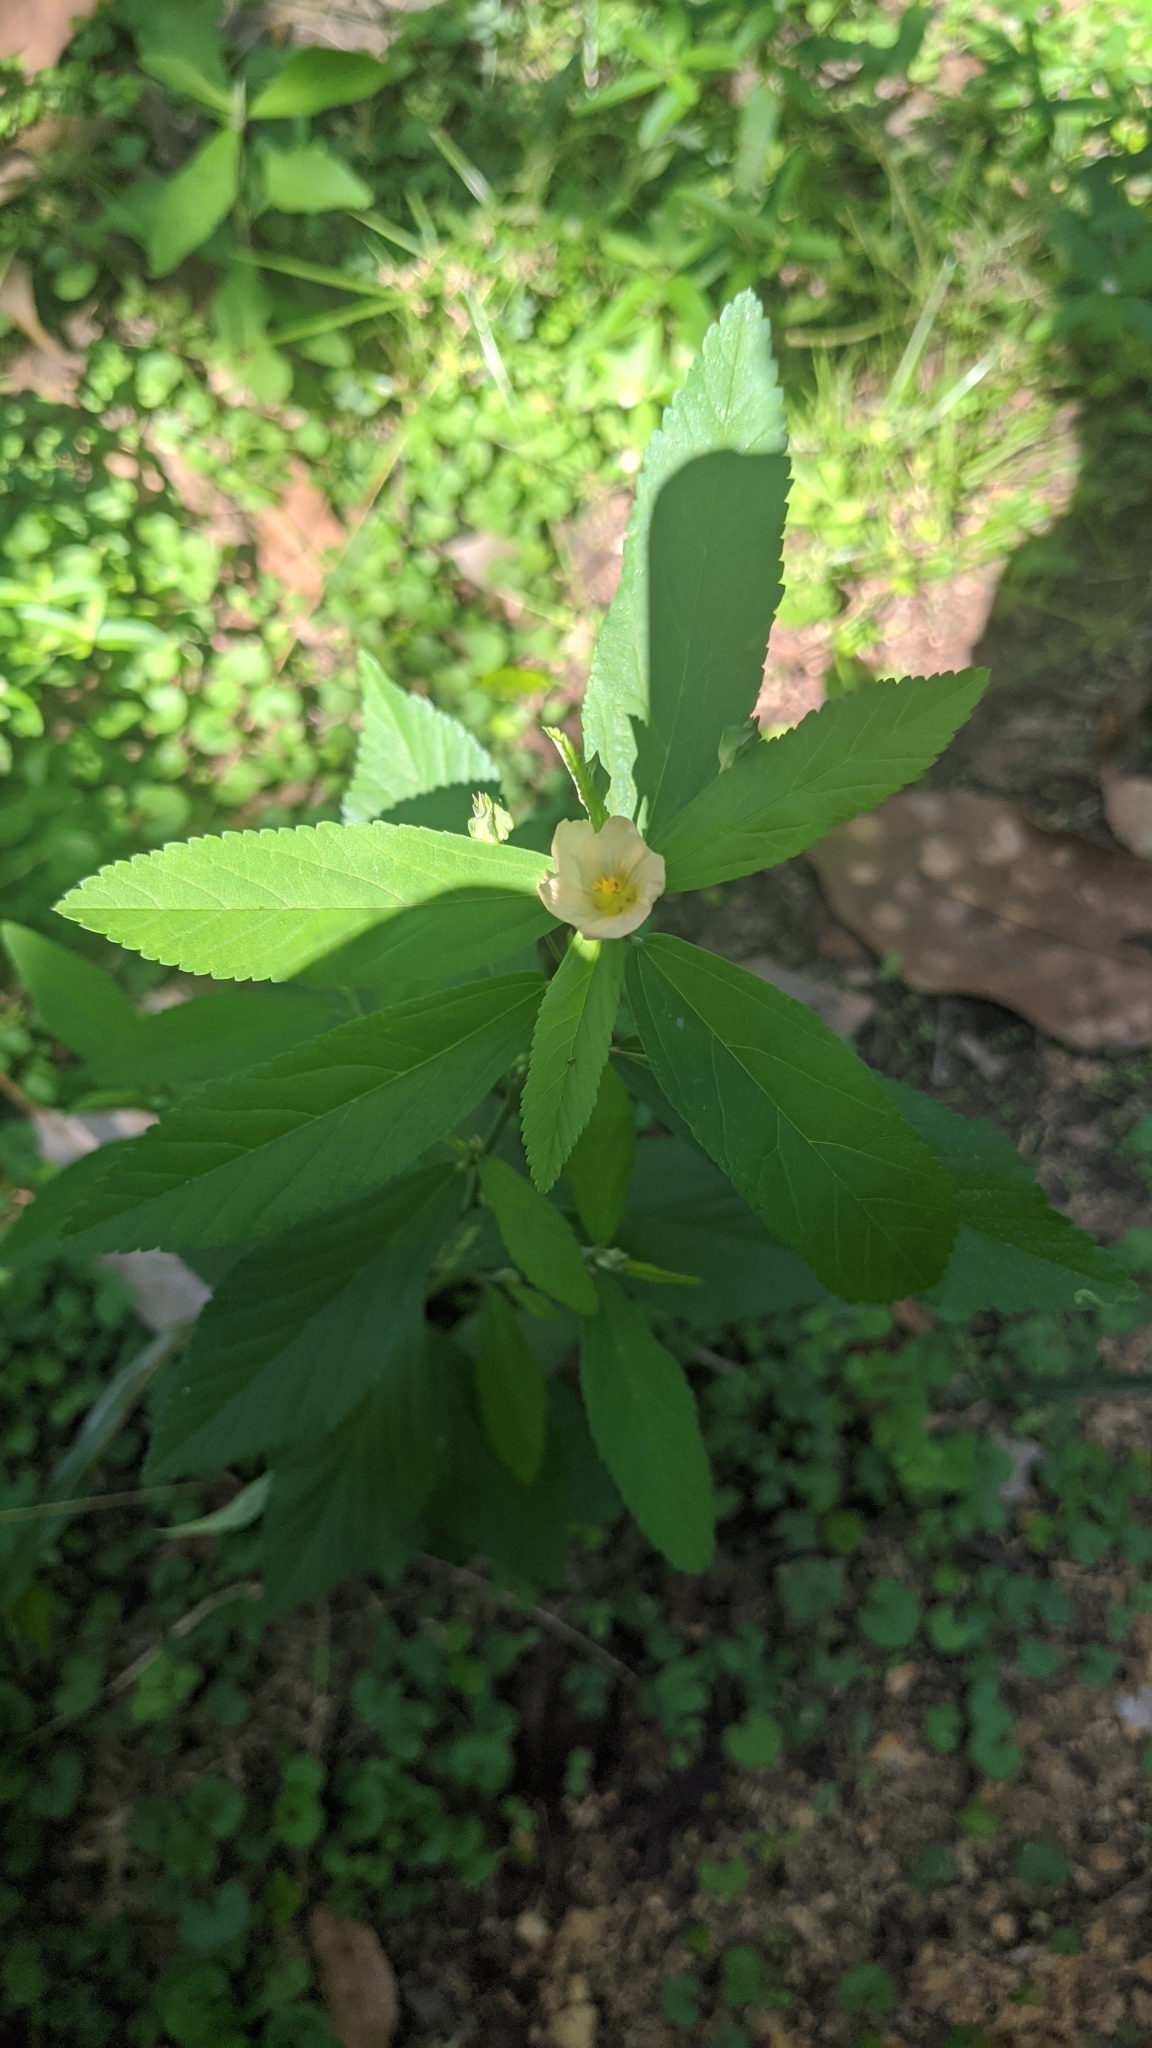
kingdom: Plantae
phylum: Tracheophyta
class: Magnoliopsida
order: Malvales
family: Malvaceae
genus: Sida
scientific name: Sida rhombifolia
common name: Queensland-hemp
